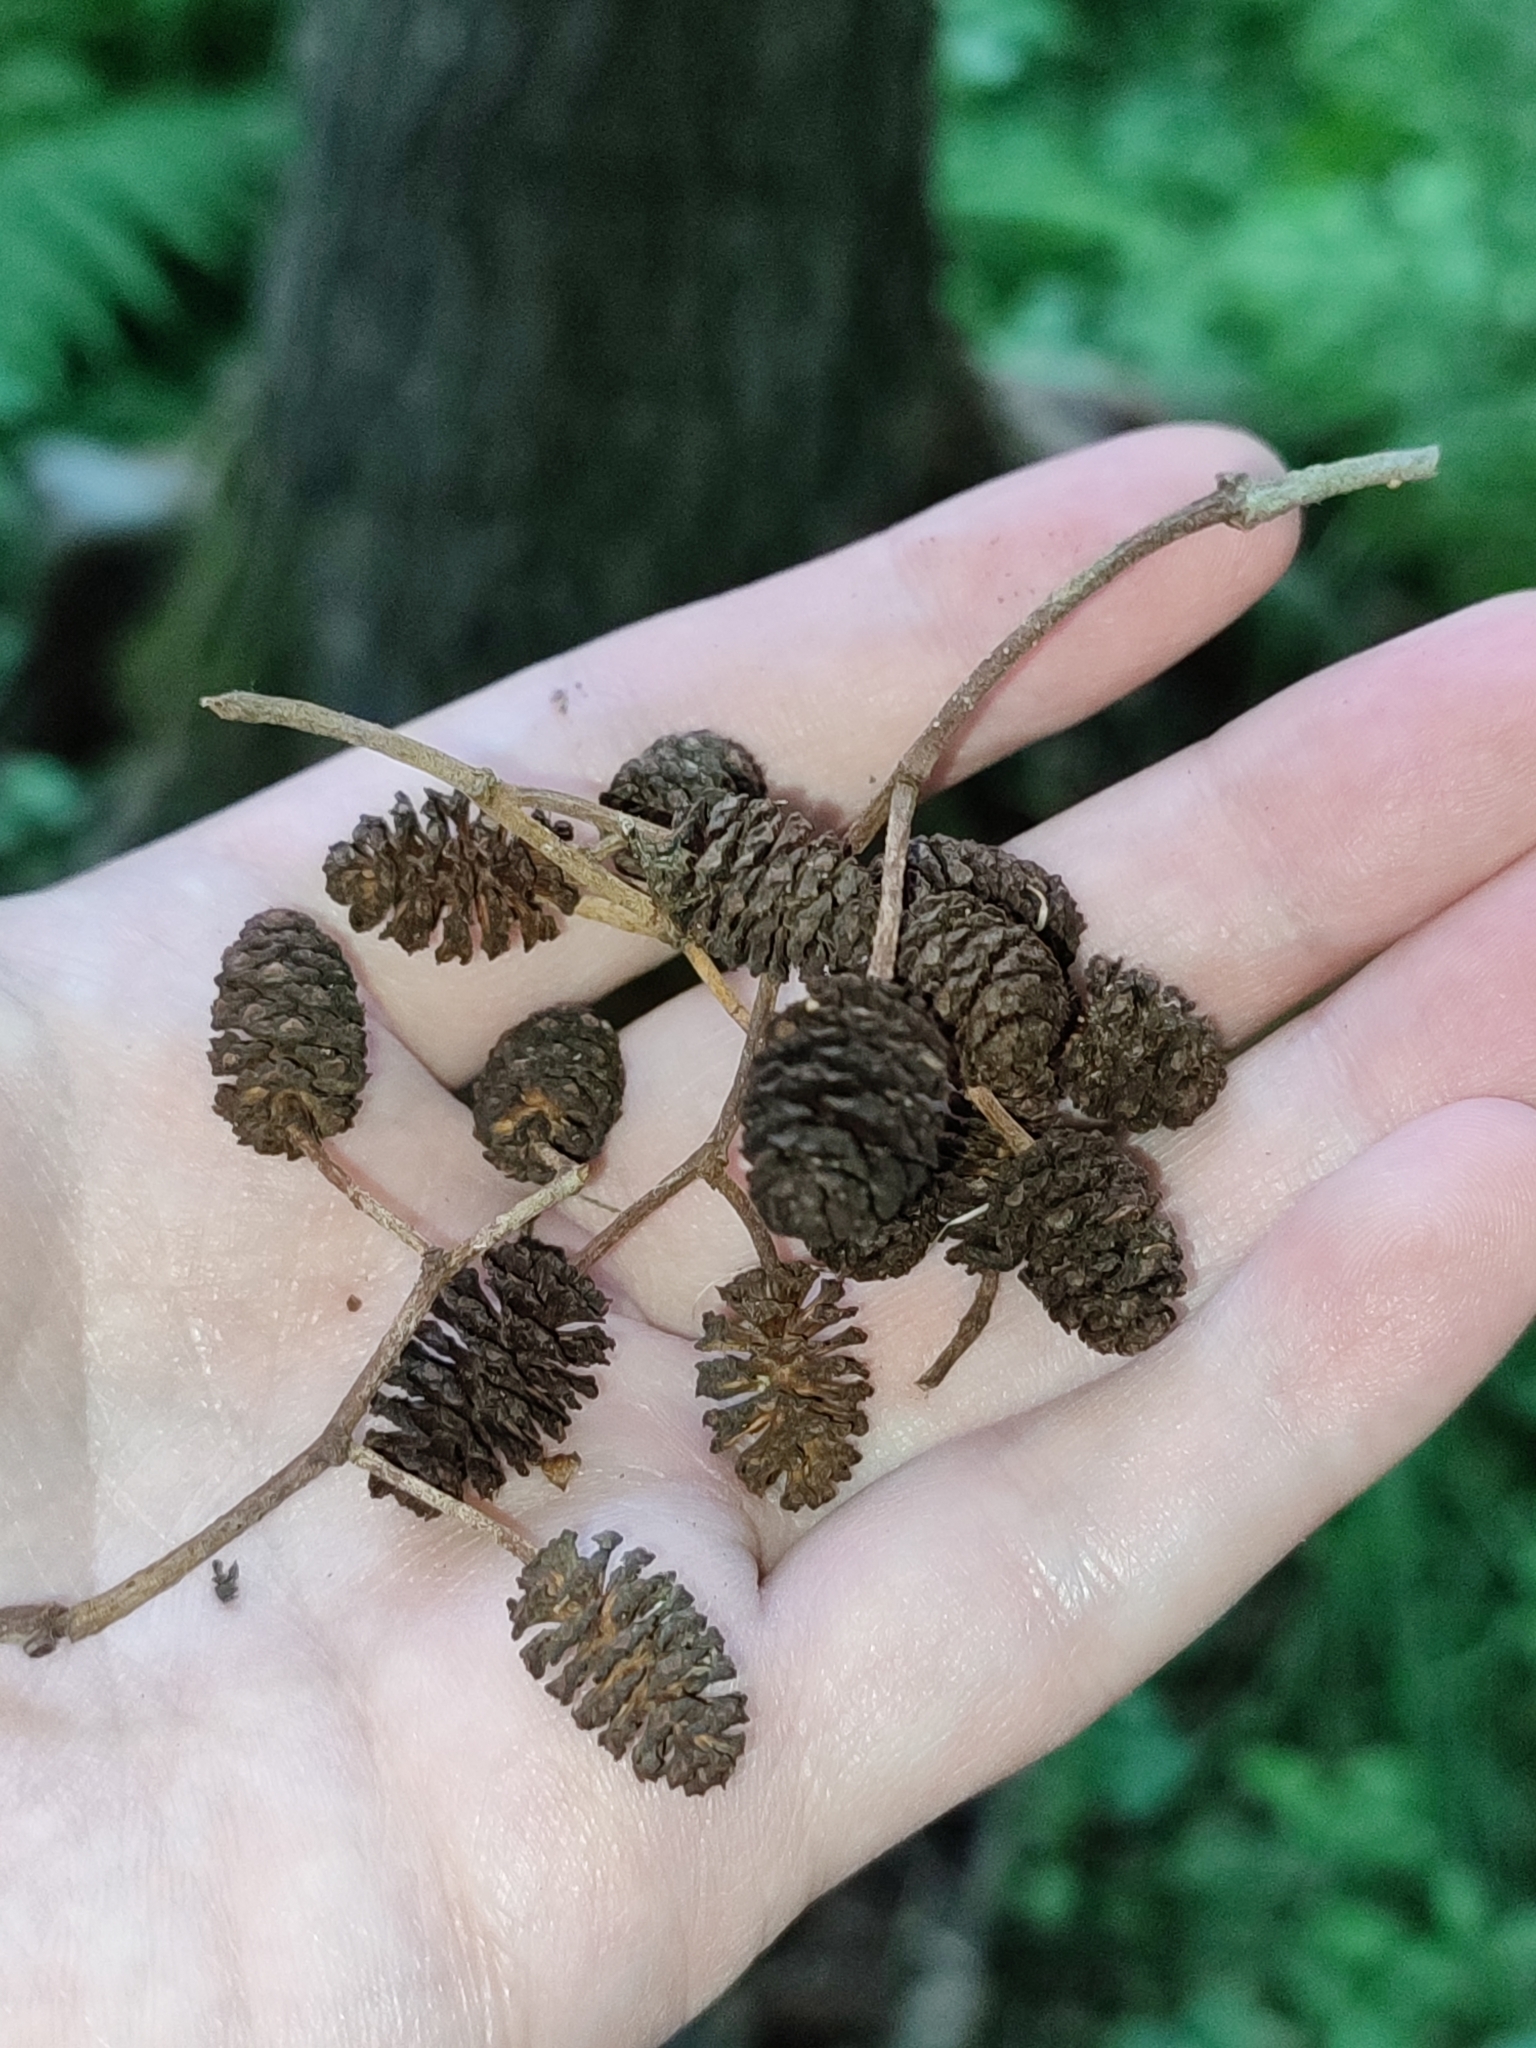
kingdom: Plantae
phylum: Tracheophyta
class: Magnoliopsida
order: Fagales
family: Betulaceae
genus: Alnus
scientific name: Alnus glutinosa
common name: Black alder
